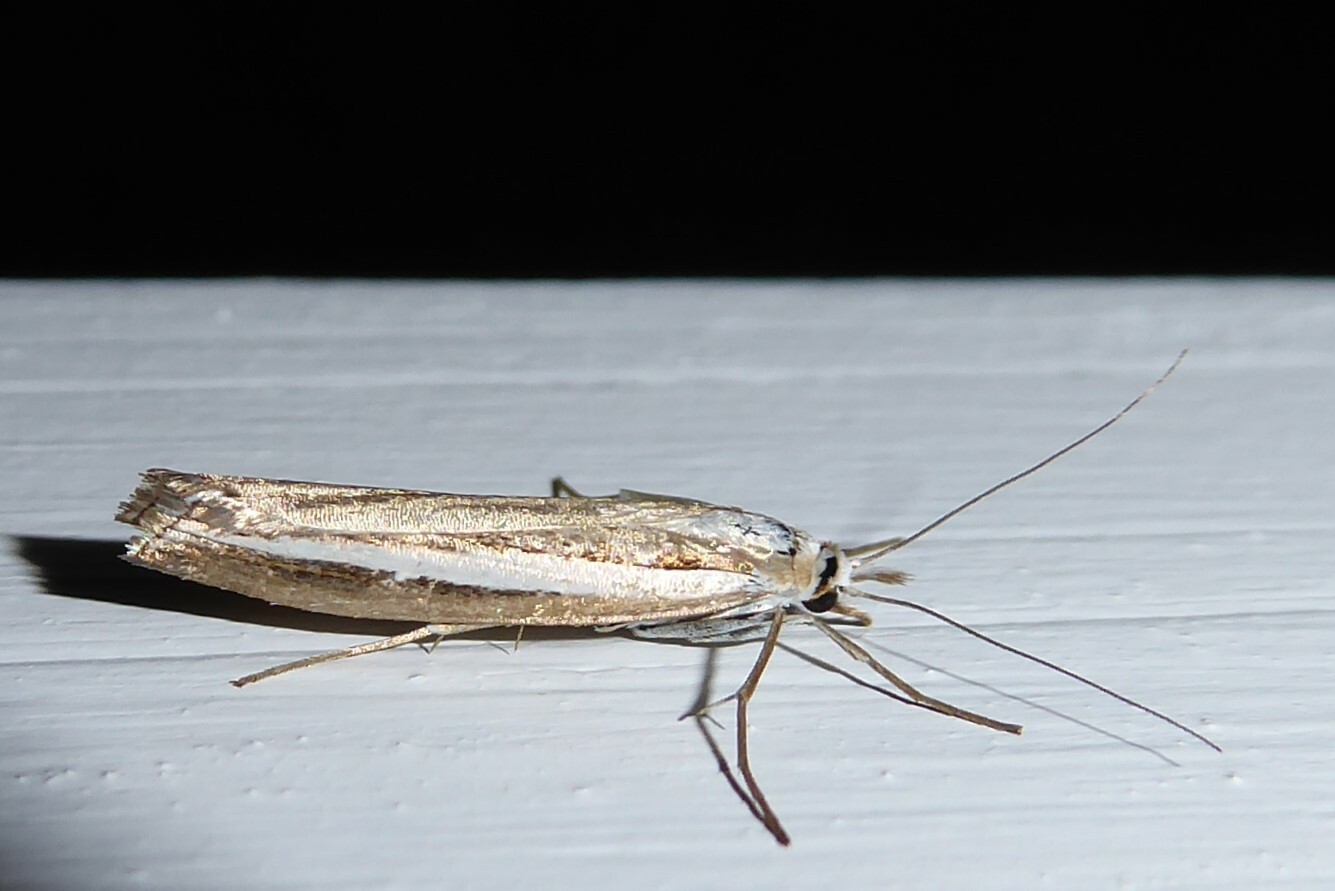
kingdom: Animalia
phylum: Arthropoda
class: Insecta
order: Lepidoptera
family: Crambidae
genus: Orocrambus
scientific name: Orocrambus vittellus
